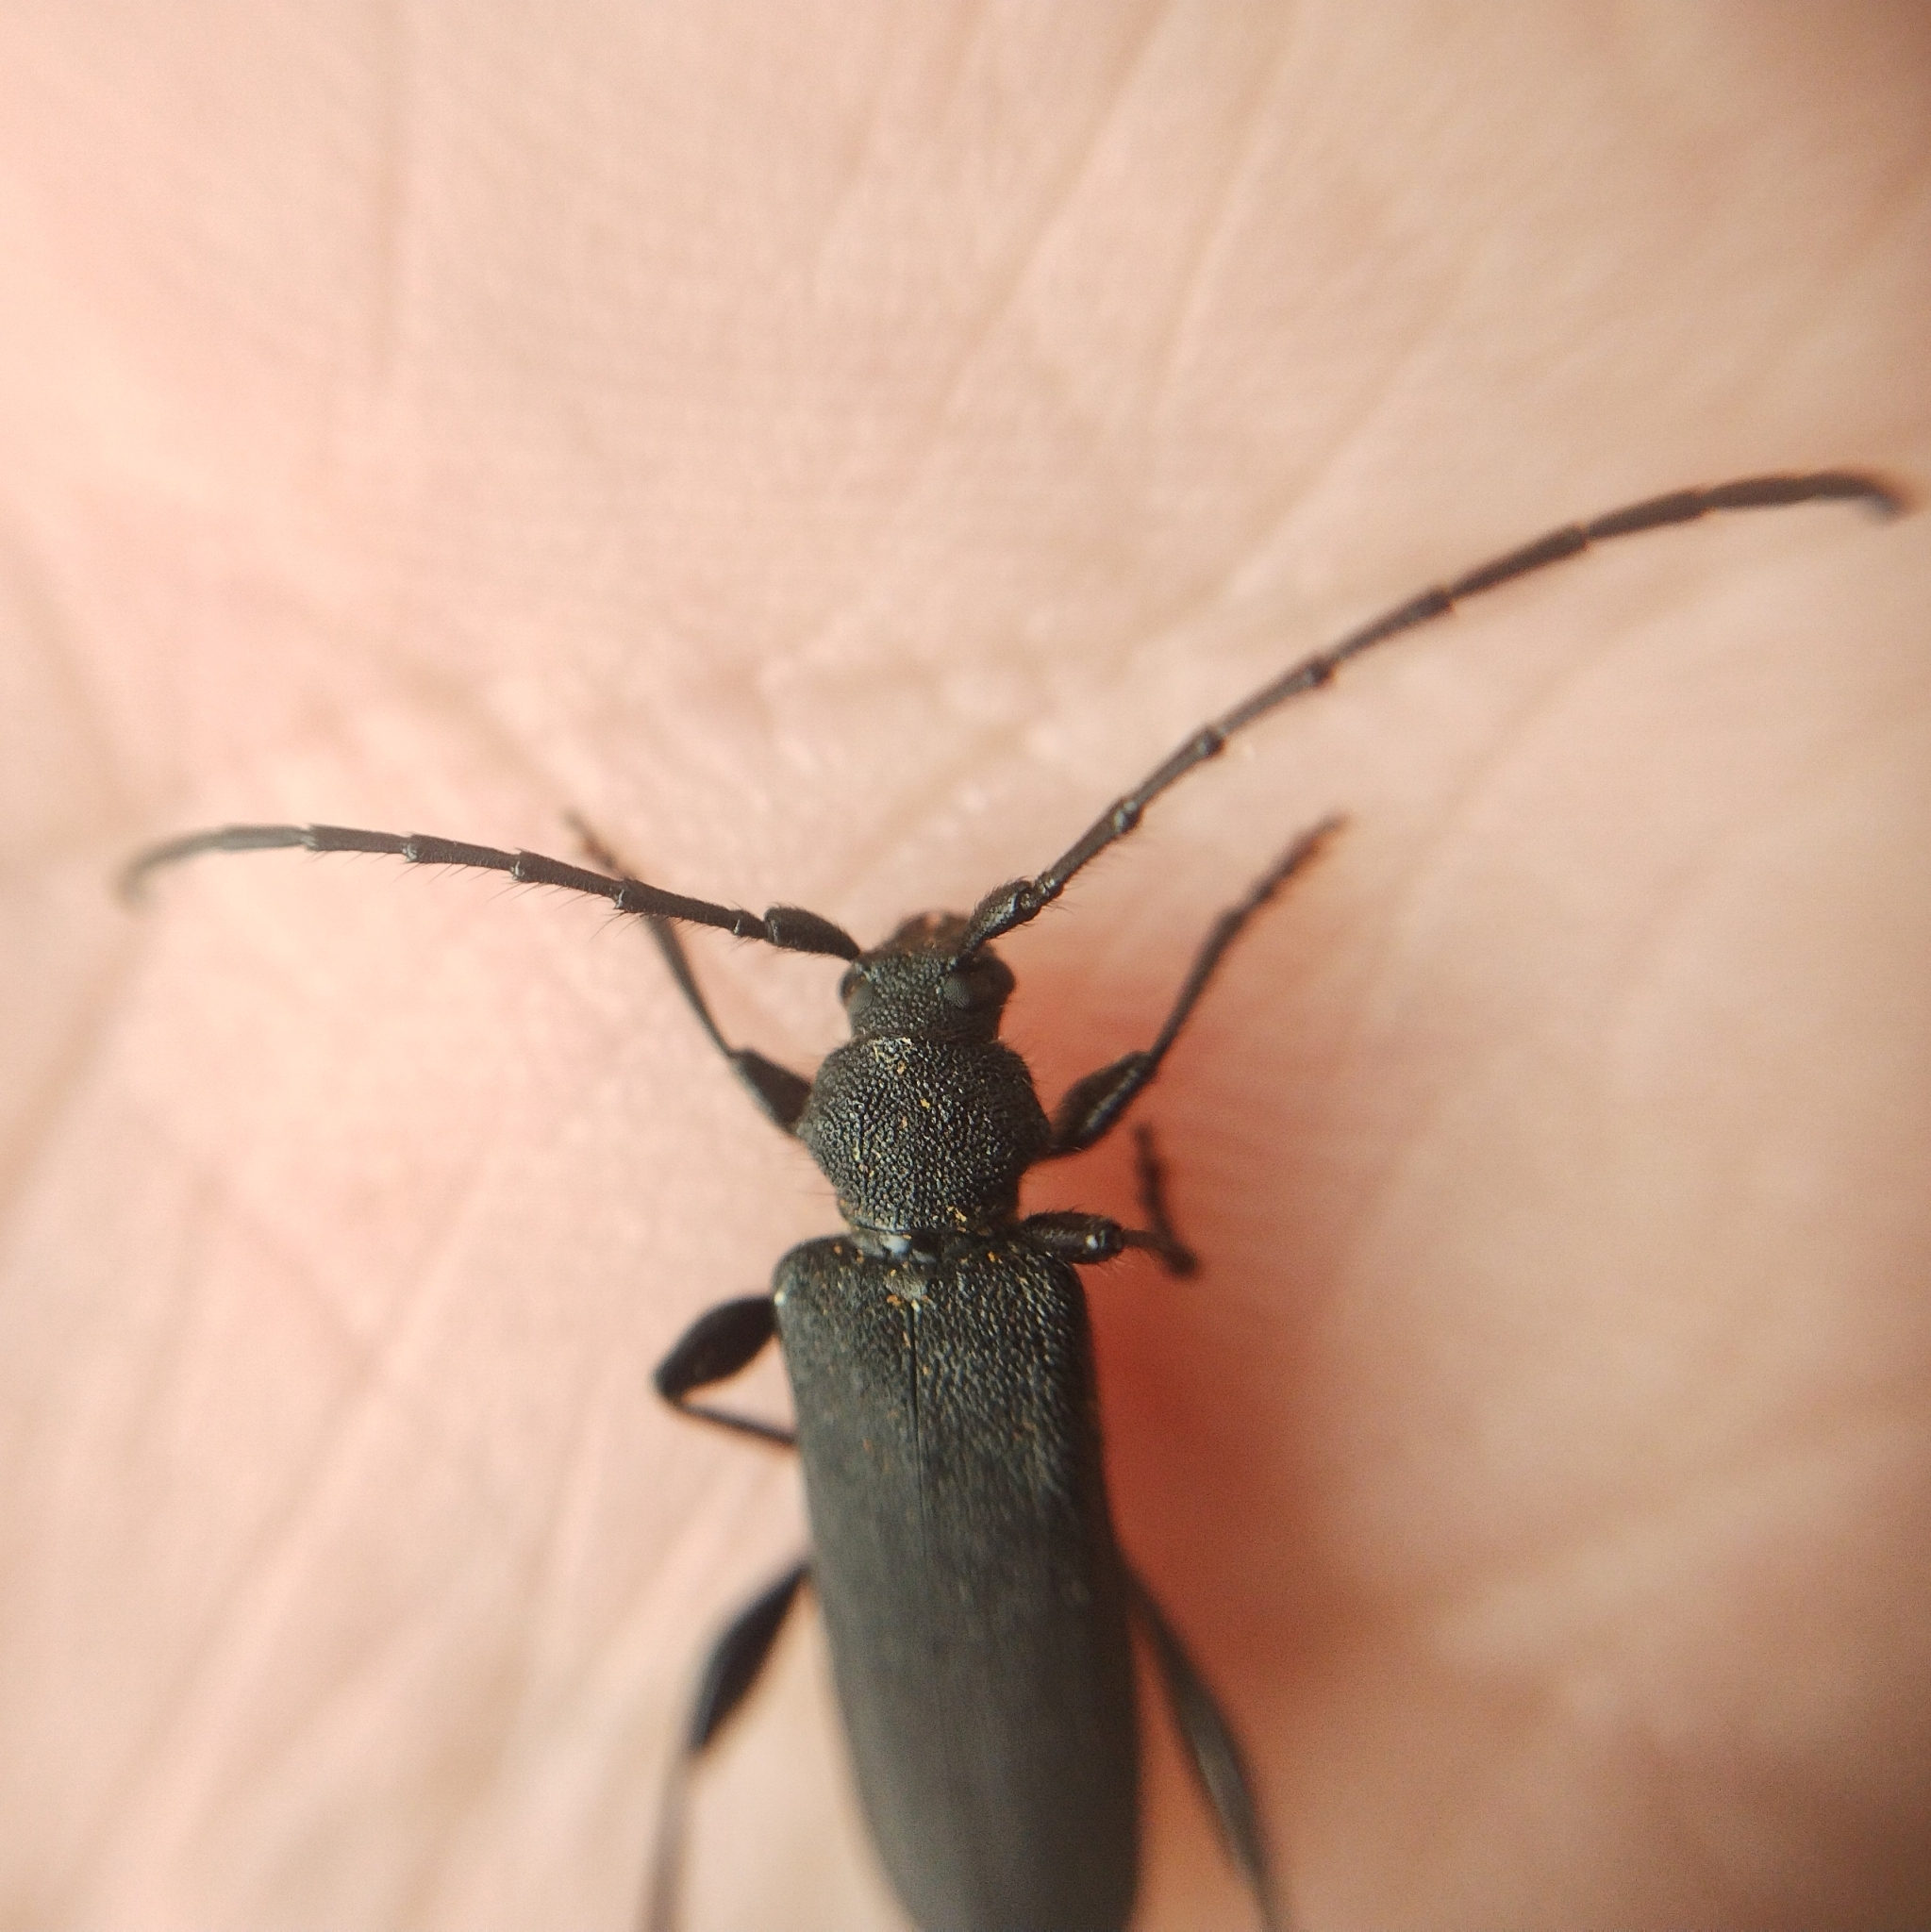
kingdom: Animalia
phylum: Arthropoda
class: Insecta
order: Coleoptera
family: Cerambycidae
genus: Ropalopus
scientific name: Ropalopus clavipes
